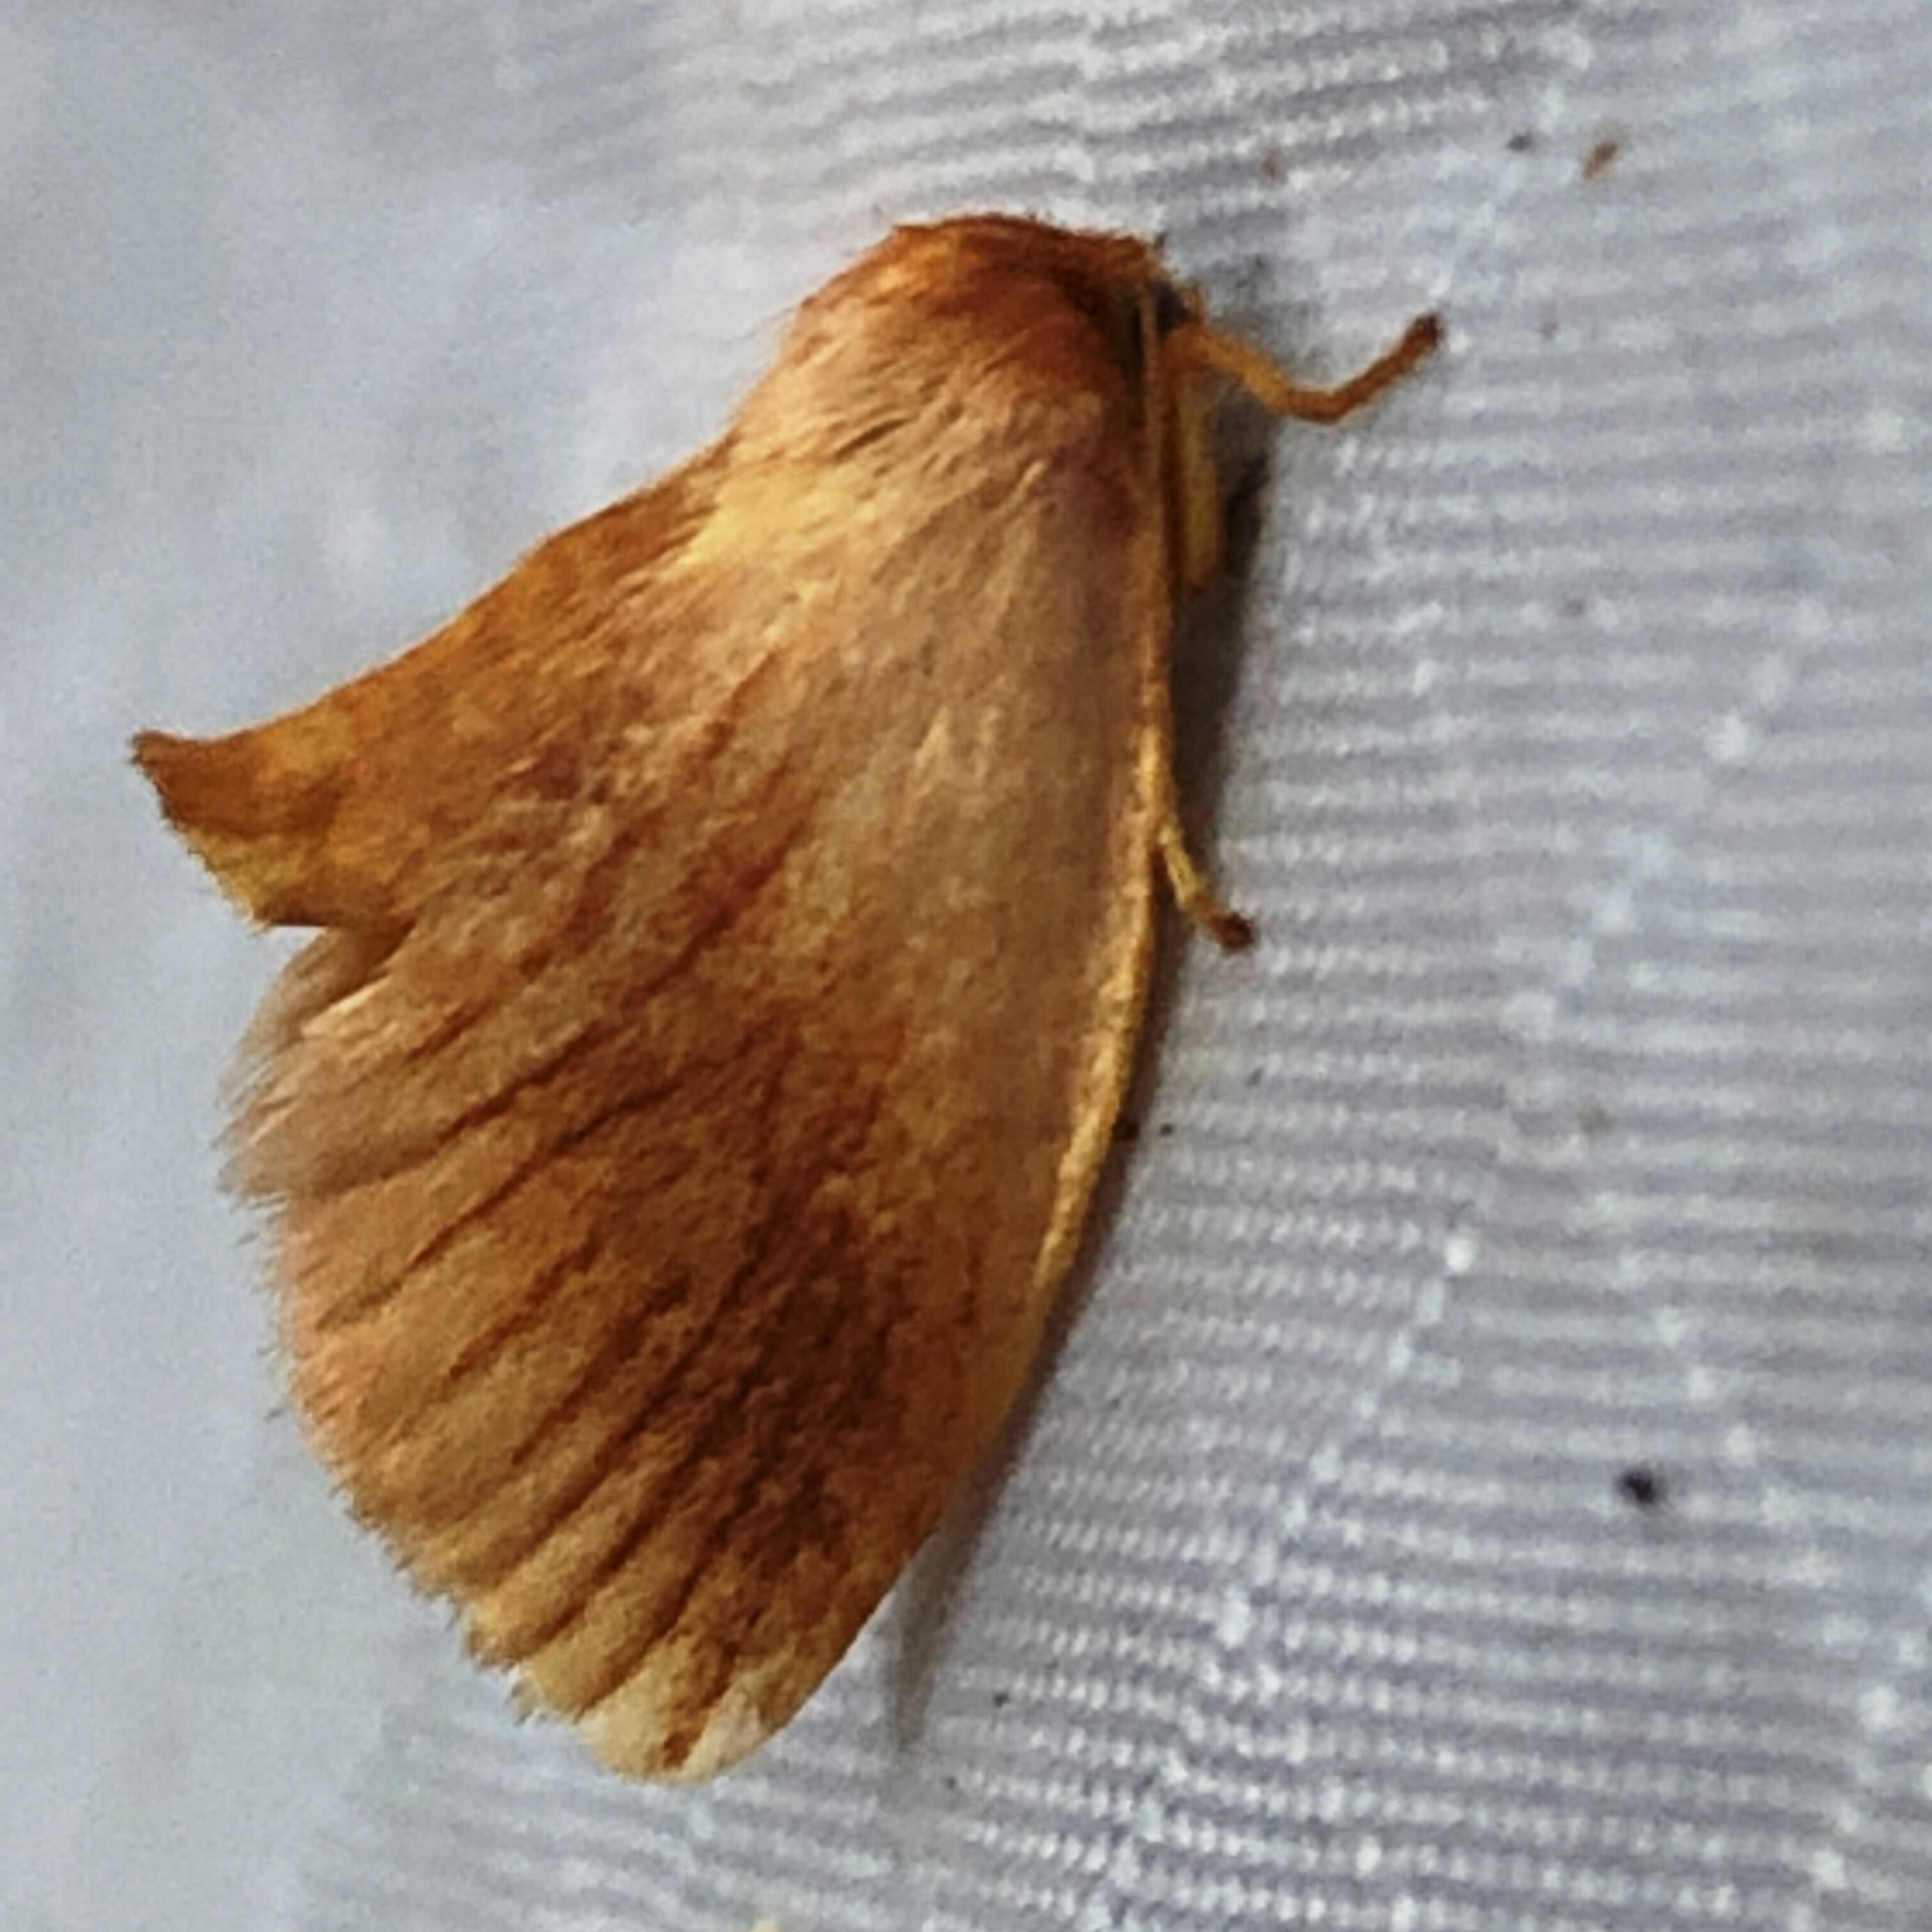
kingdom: Animalia
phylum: Arthropoda
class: Insecta
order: Lepidoptera
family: Limacodidae
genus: Tortricidia
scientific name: Tortricidia testacea
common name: Early button slug moth
